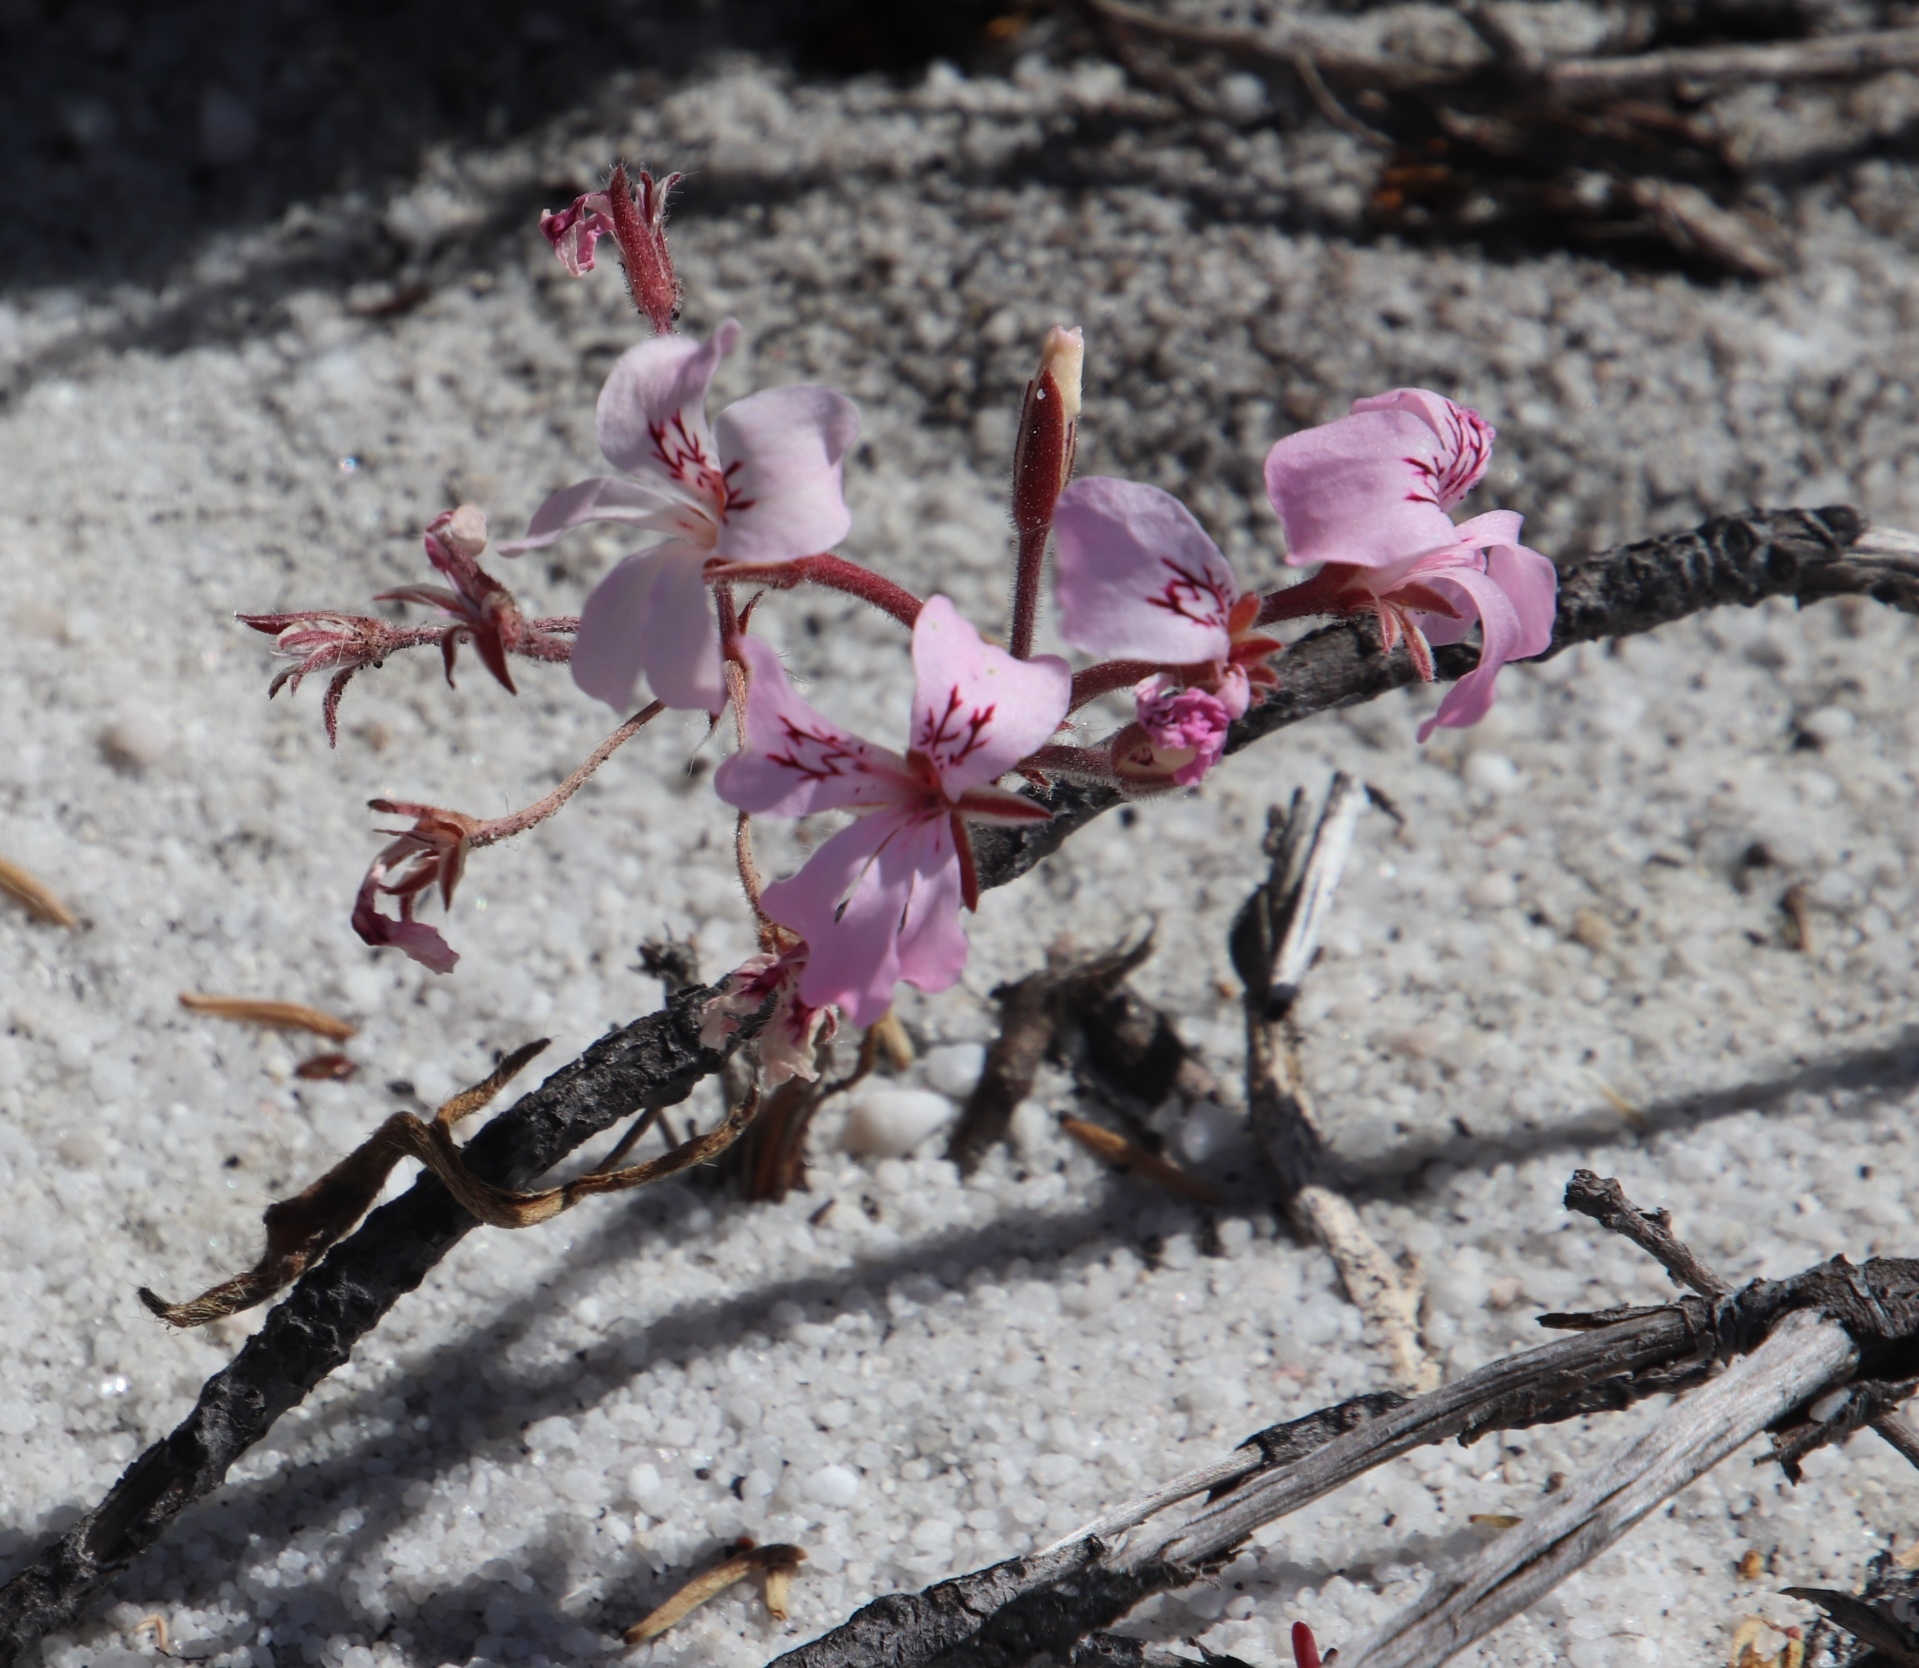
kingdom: Plantae
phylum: Tracheophyta
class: Magnoliopsida
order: Geraniales
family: Geraniaceae
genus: Pelargonium
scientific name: Pelargonium psammophilum
